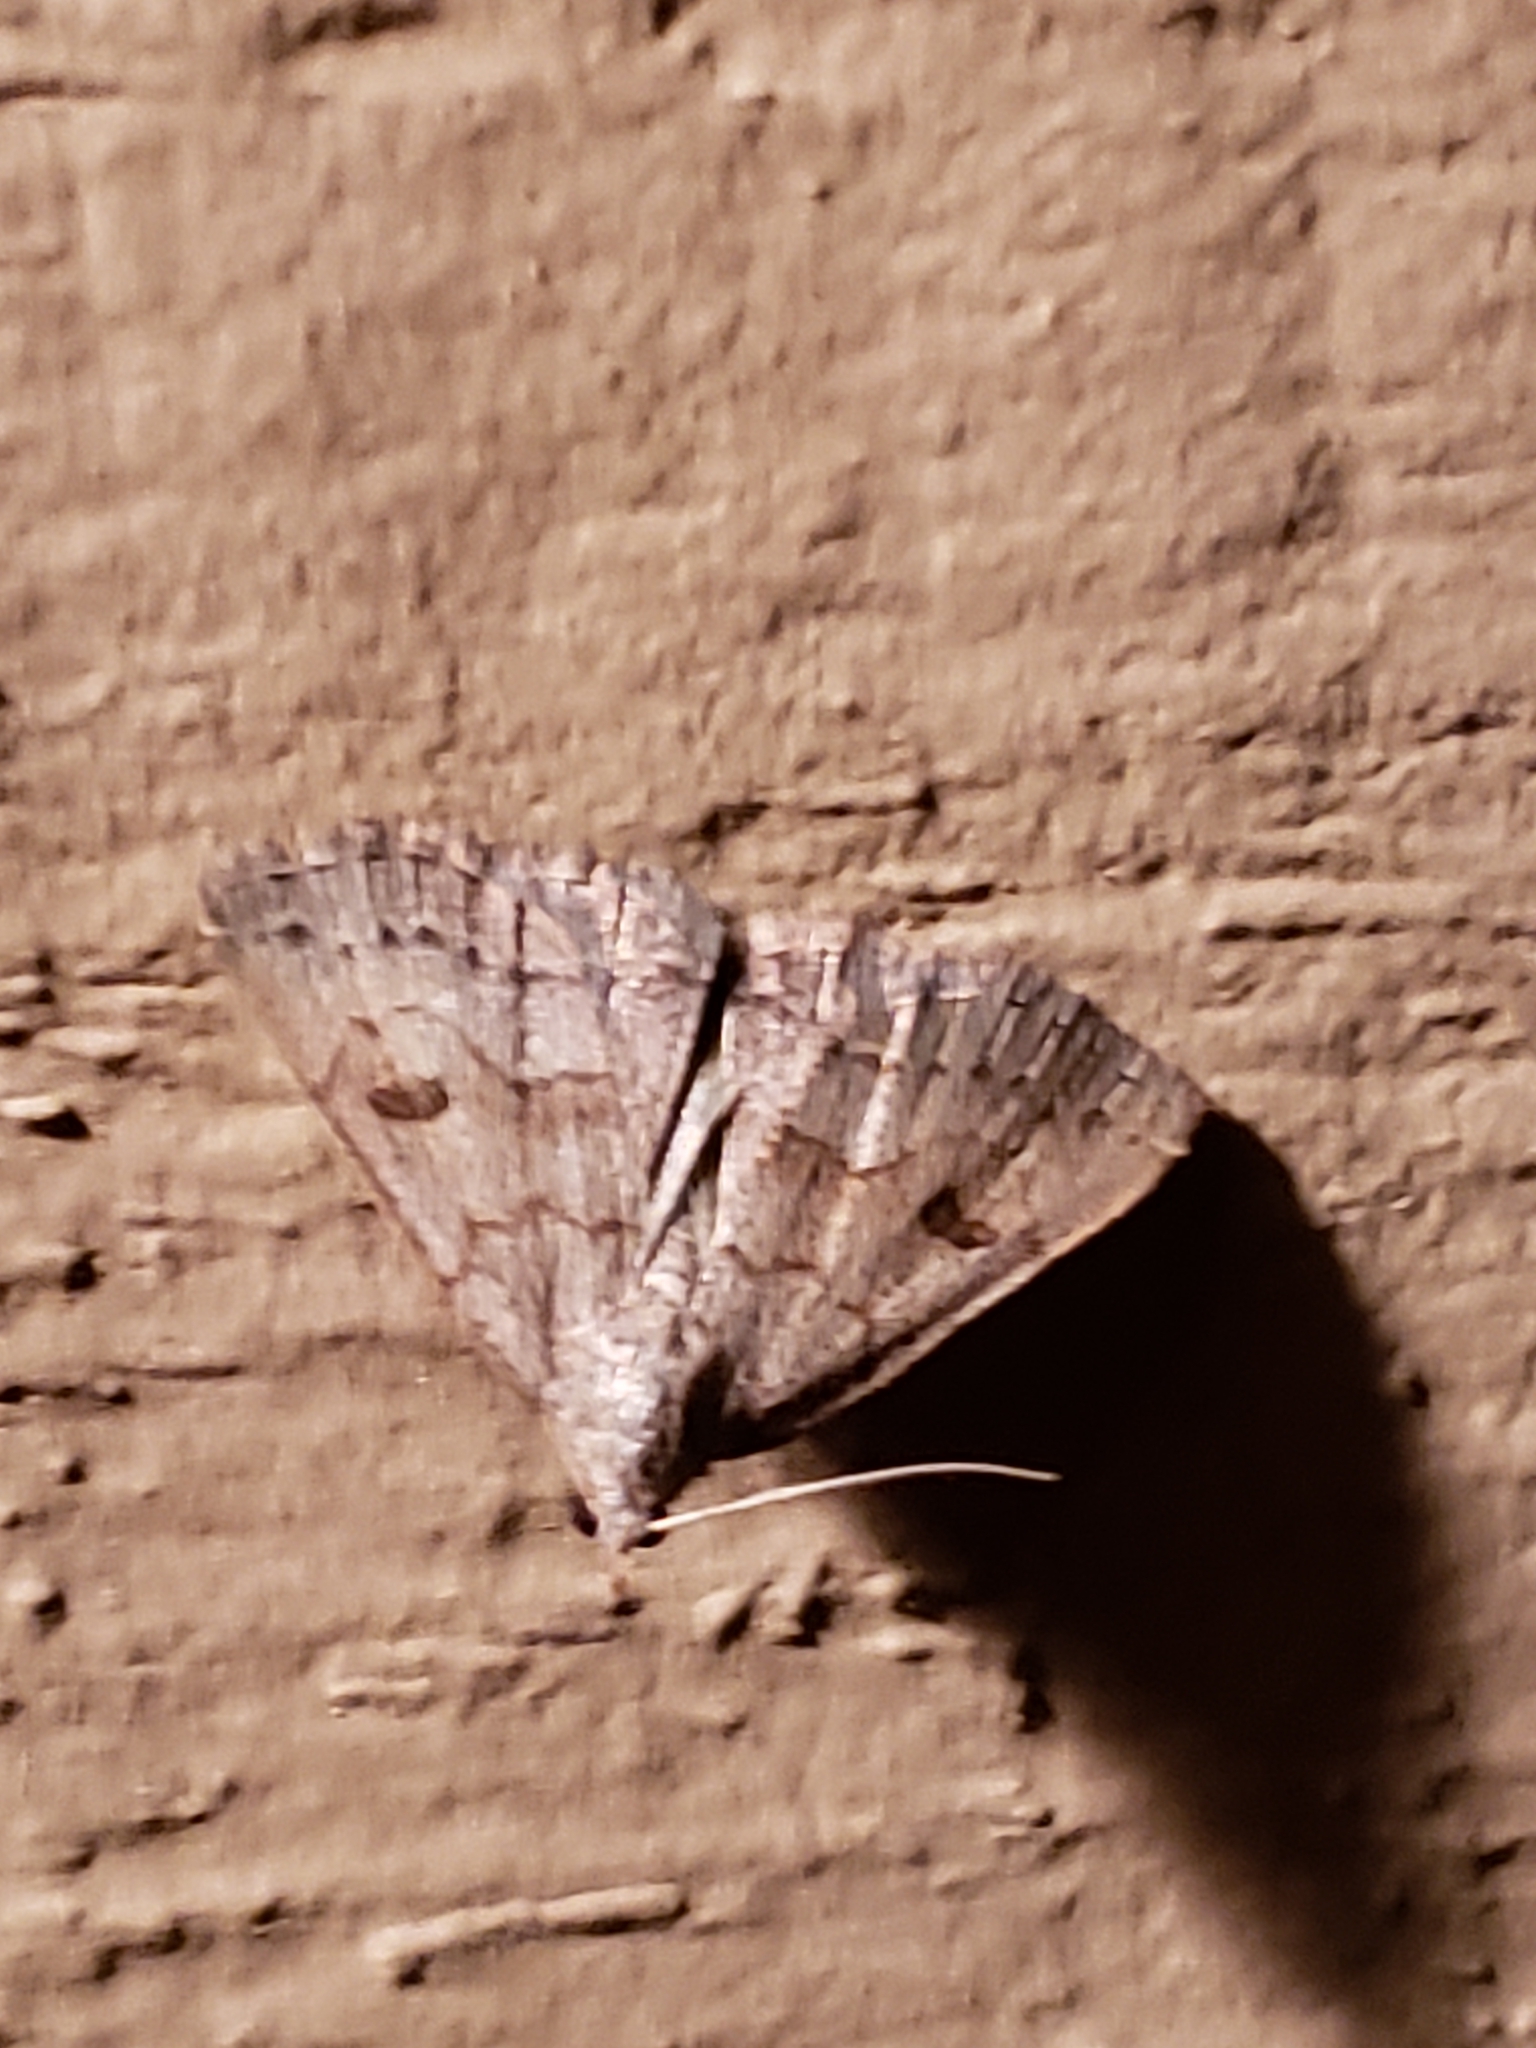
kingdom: Animalia
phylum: Arthropoda
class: Insecta
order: Lepidoptera
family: Erebidae
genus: Macrochilo
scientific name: Macrochilo morbidalis
